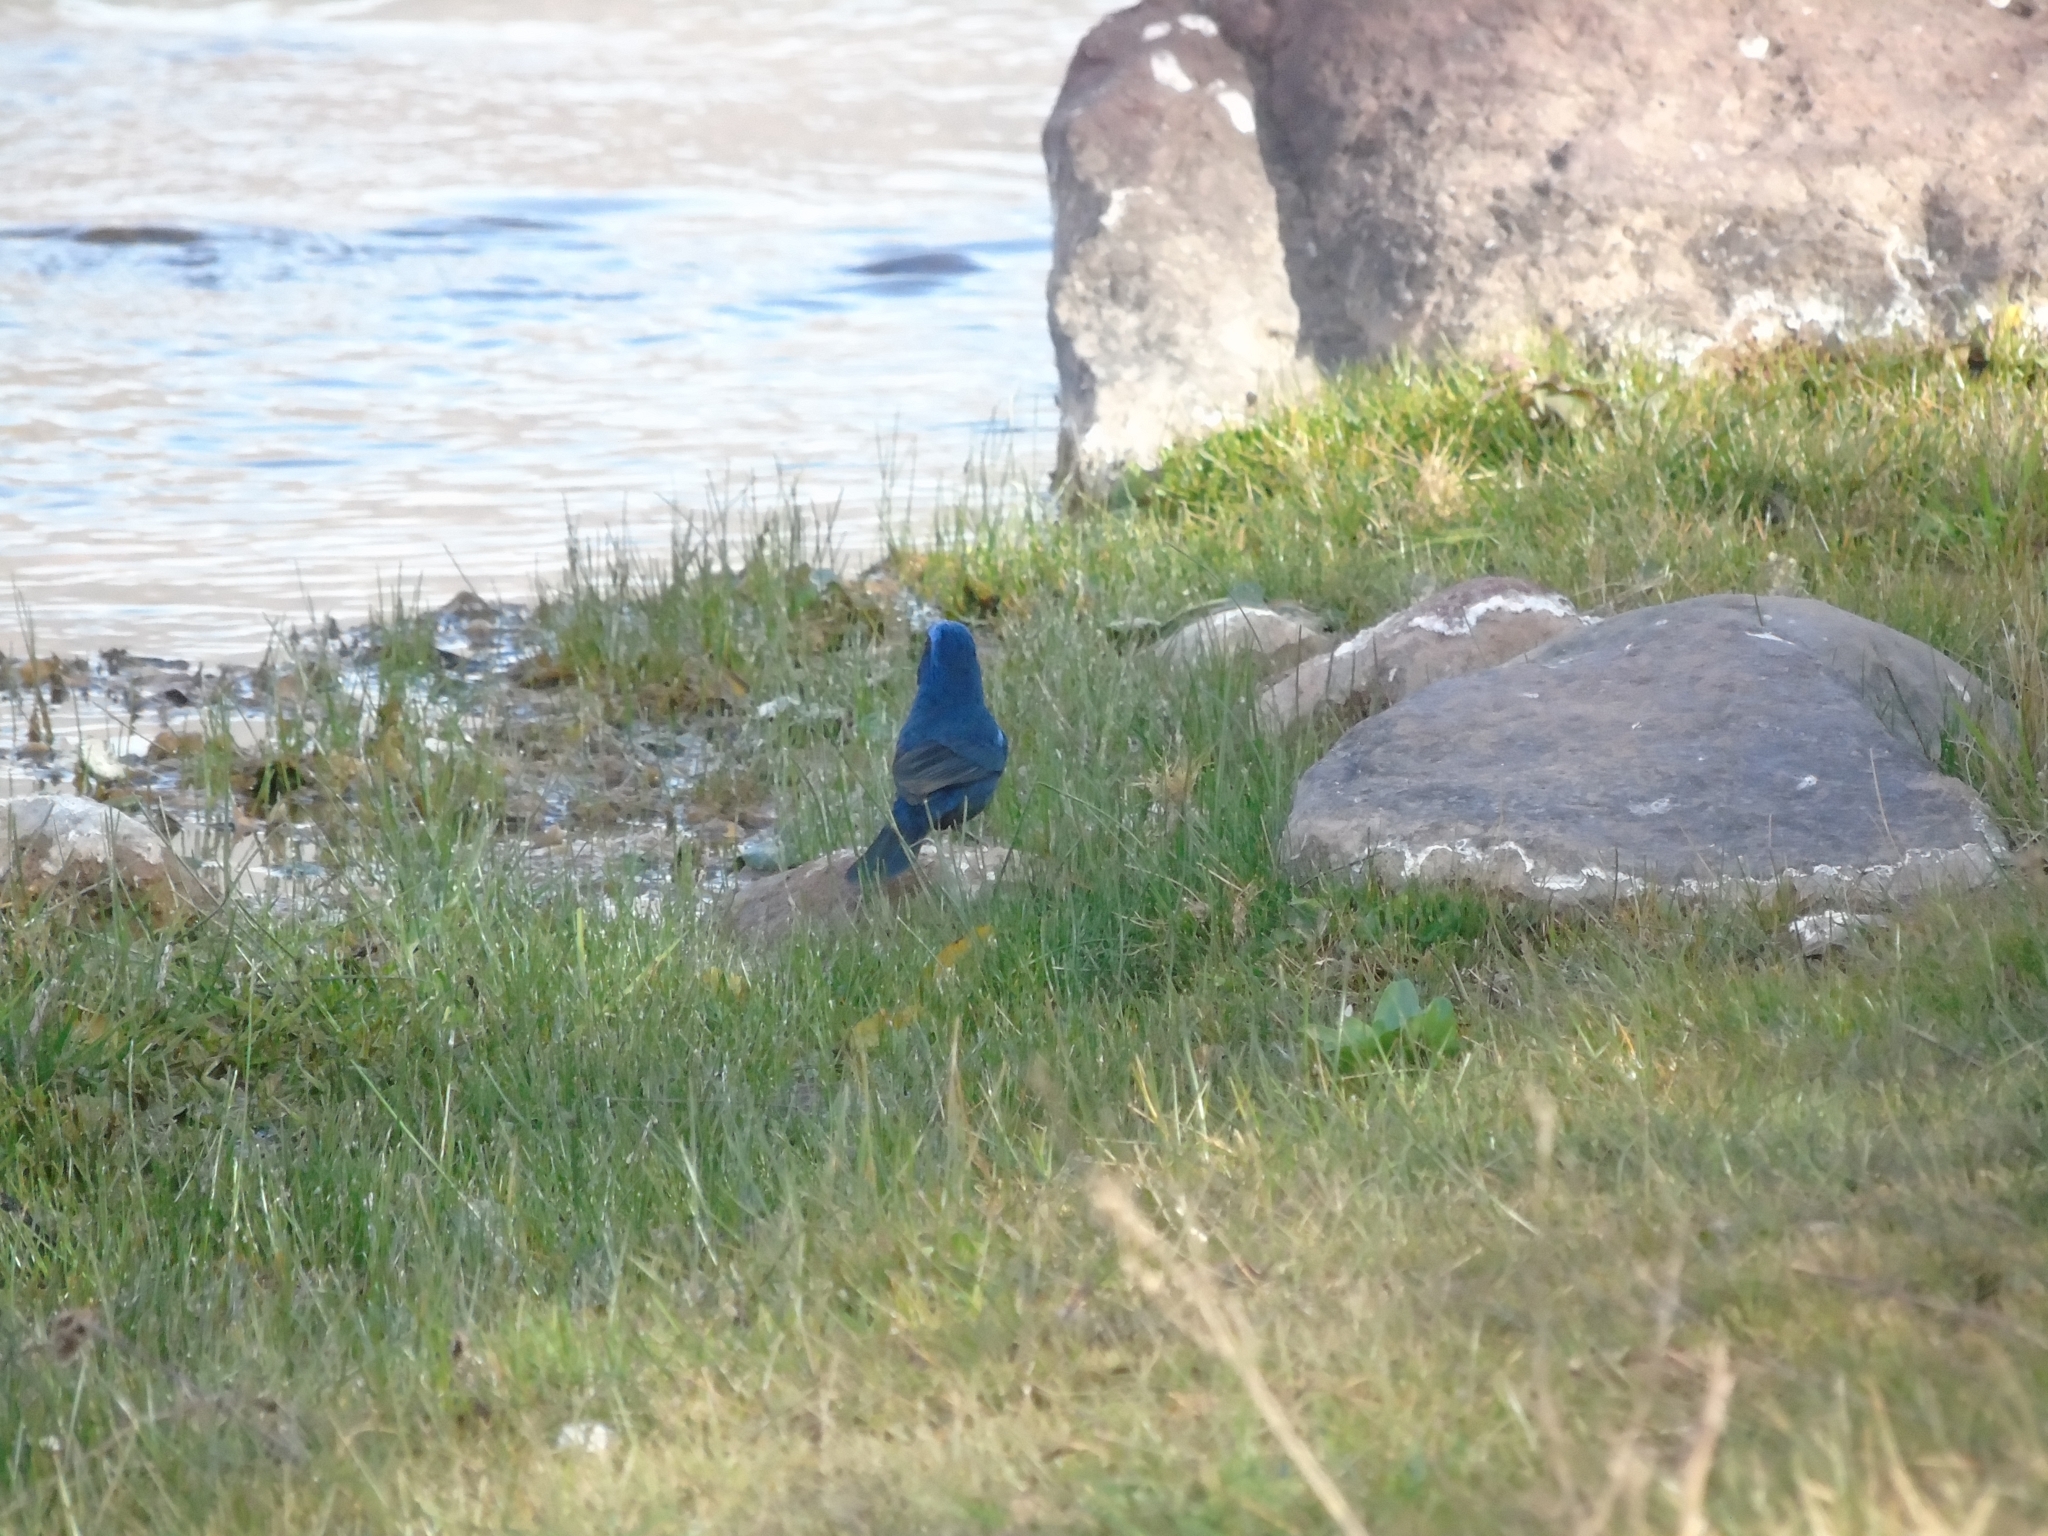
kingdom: Animalia
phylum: Chordata
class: Aves
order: Passeriformes
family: Cardinalidae
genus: Cyanoloxia
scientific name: Cyanoloxia brissonii
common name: Ultramarine grosbeak
